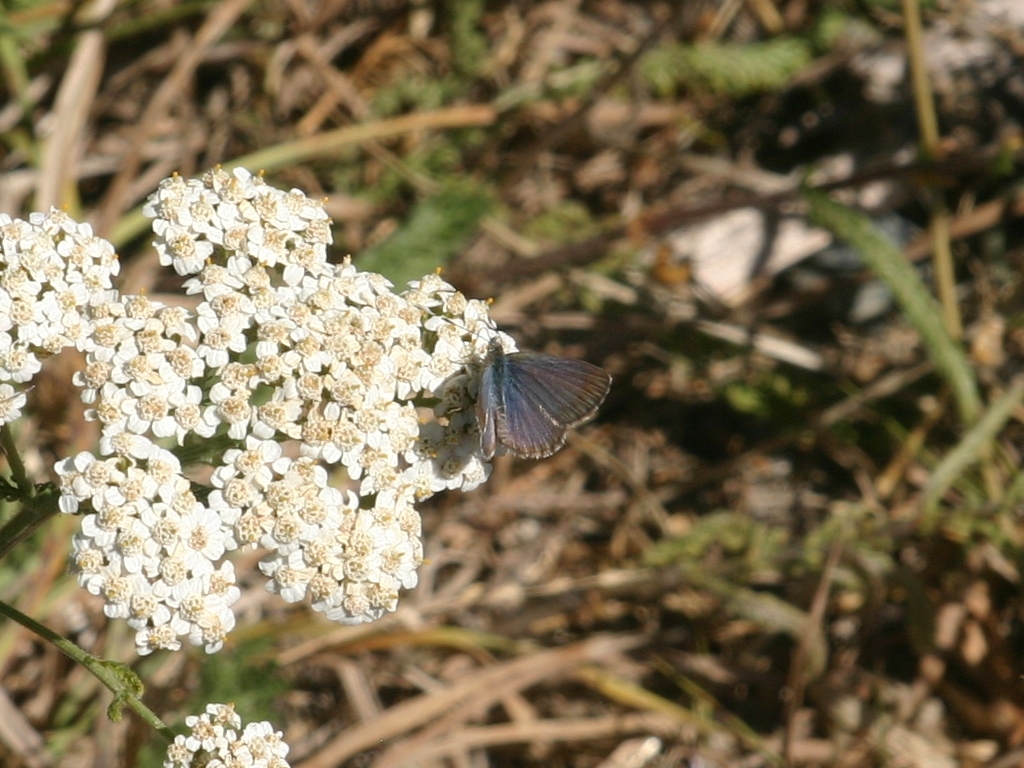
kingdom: Animalia
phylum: Arthropoda
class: Insecta
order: Lepidoptera
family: Lycaenidae
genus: Zizina
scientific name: Zizina otis
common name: Lesser grass blue
